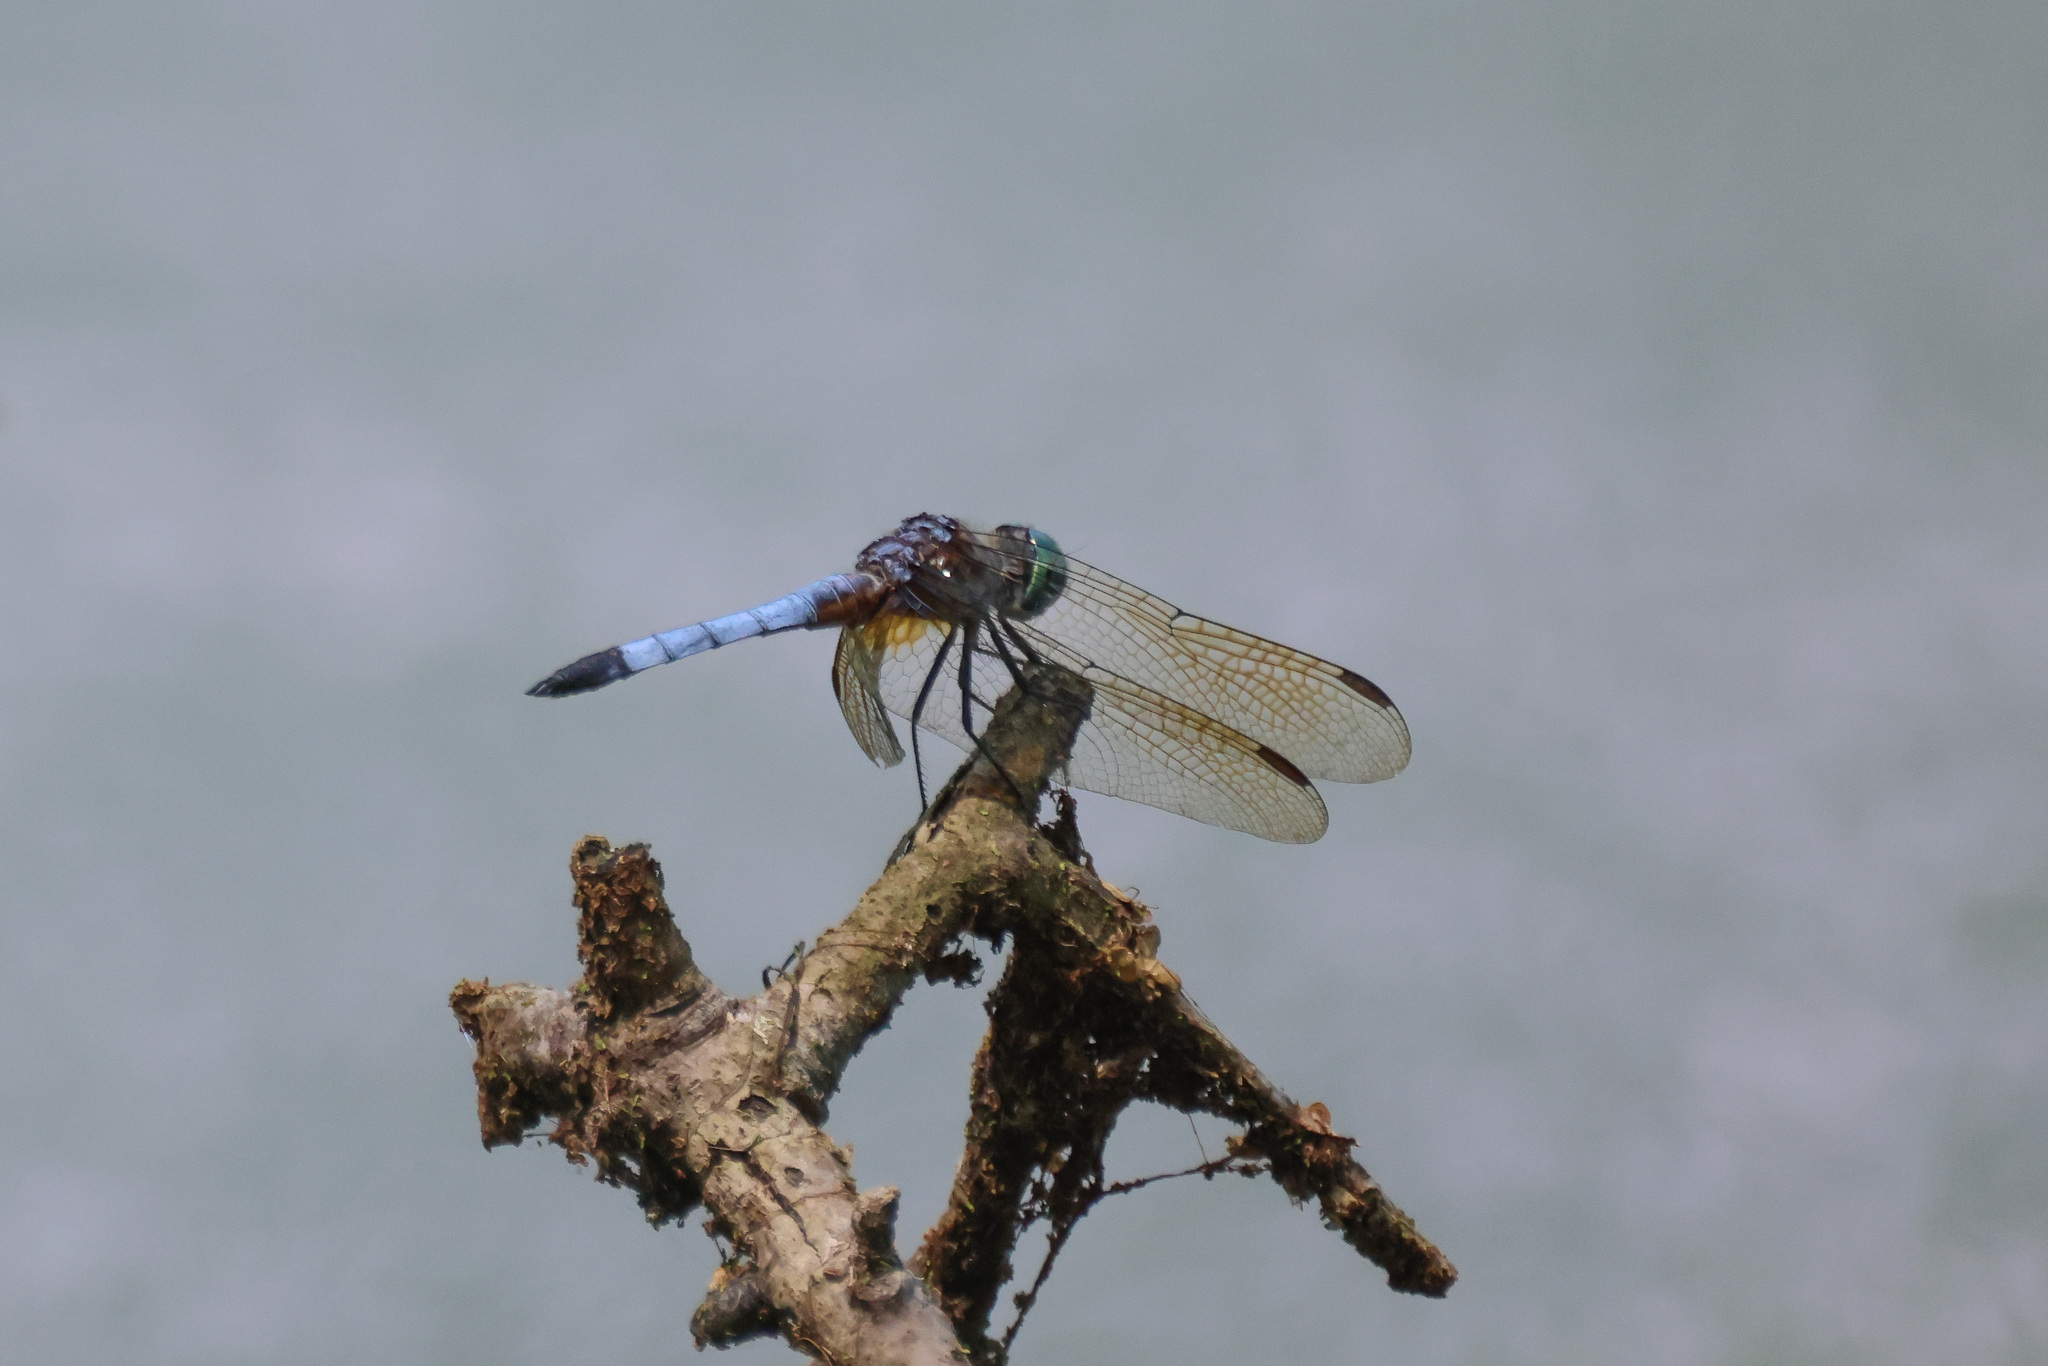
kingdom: Animalia
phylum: Arthropoda
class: Insecta
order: Odonata
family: Libellulidae
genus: Pachydiplax
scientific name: Pachydiplax longipennis
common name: Blue dasher
